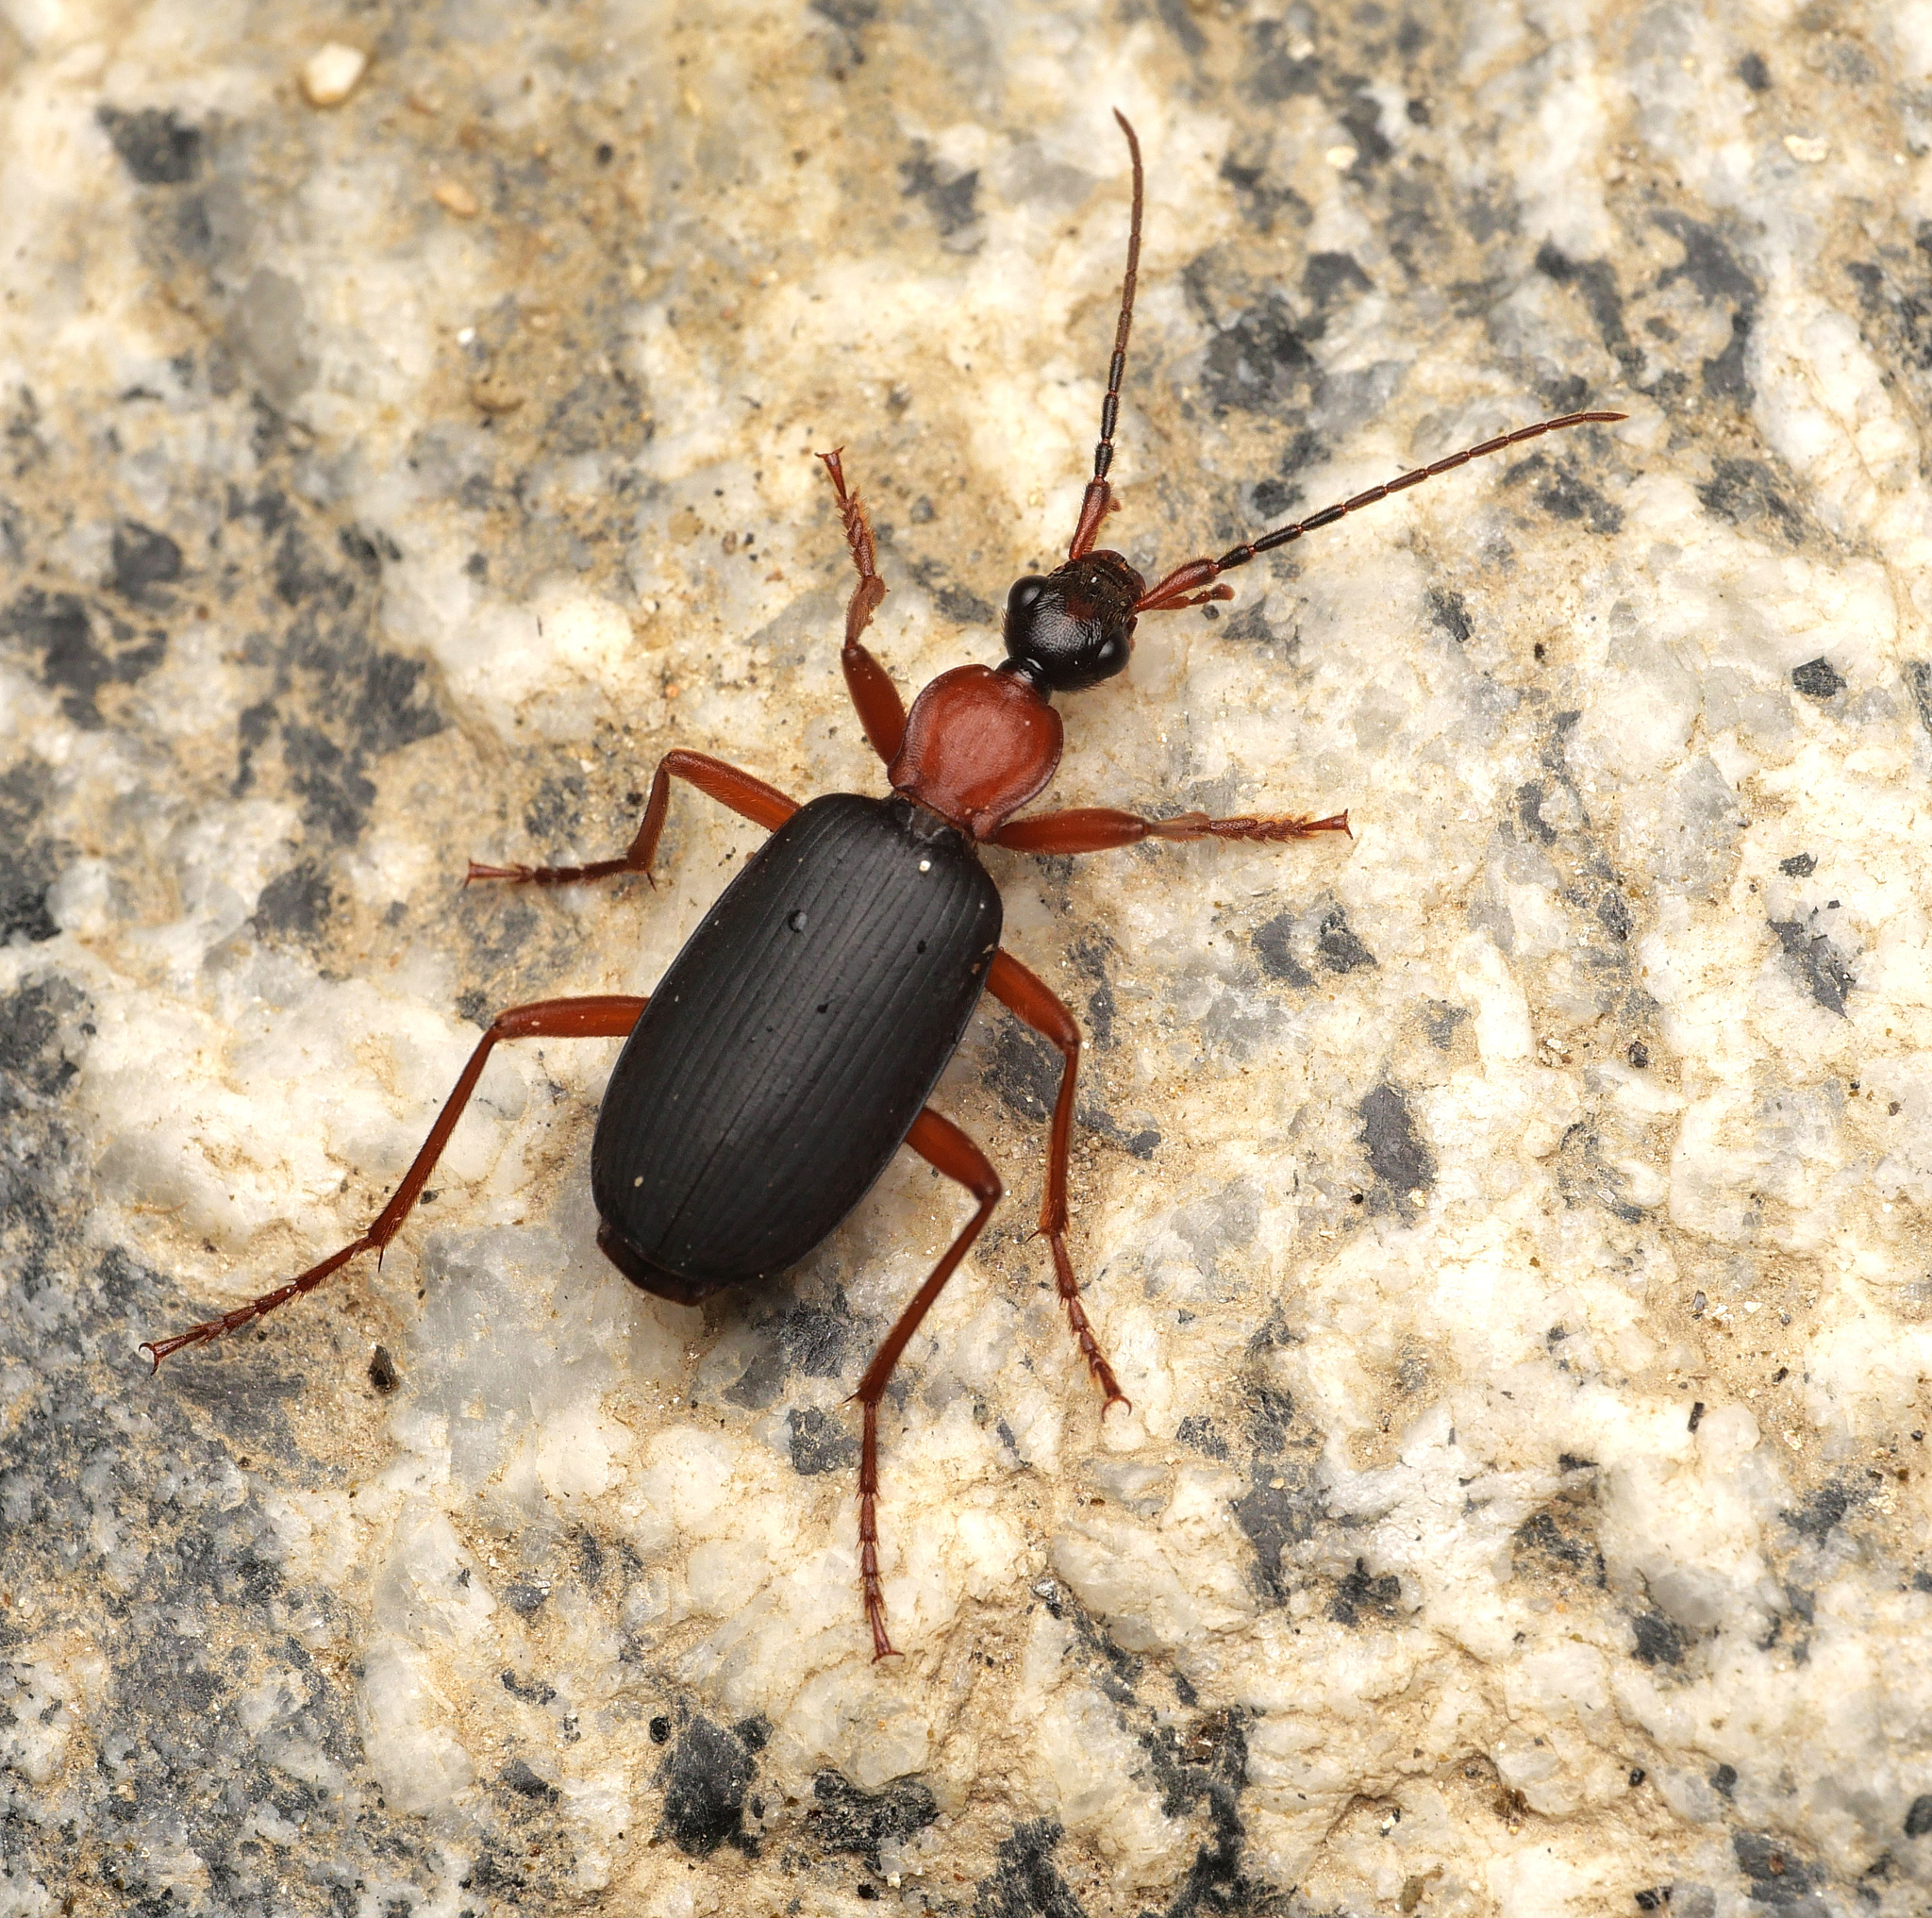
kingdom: Animalia
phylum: Arthropoda
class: Insecta
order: Coleoptera
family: Carabidae
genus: Galerita
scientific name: Galerita lecontei
